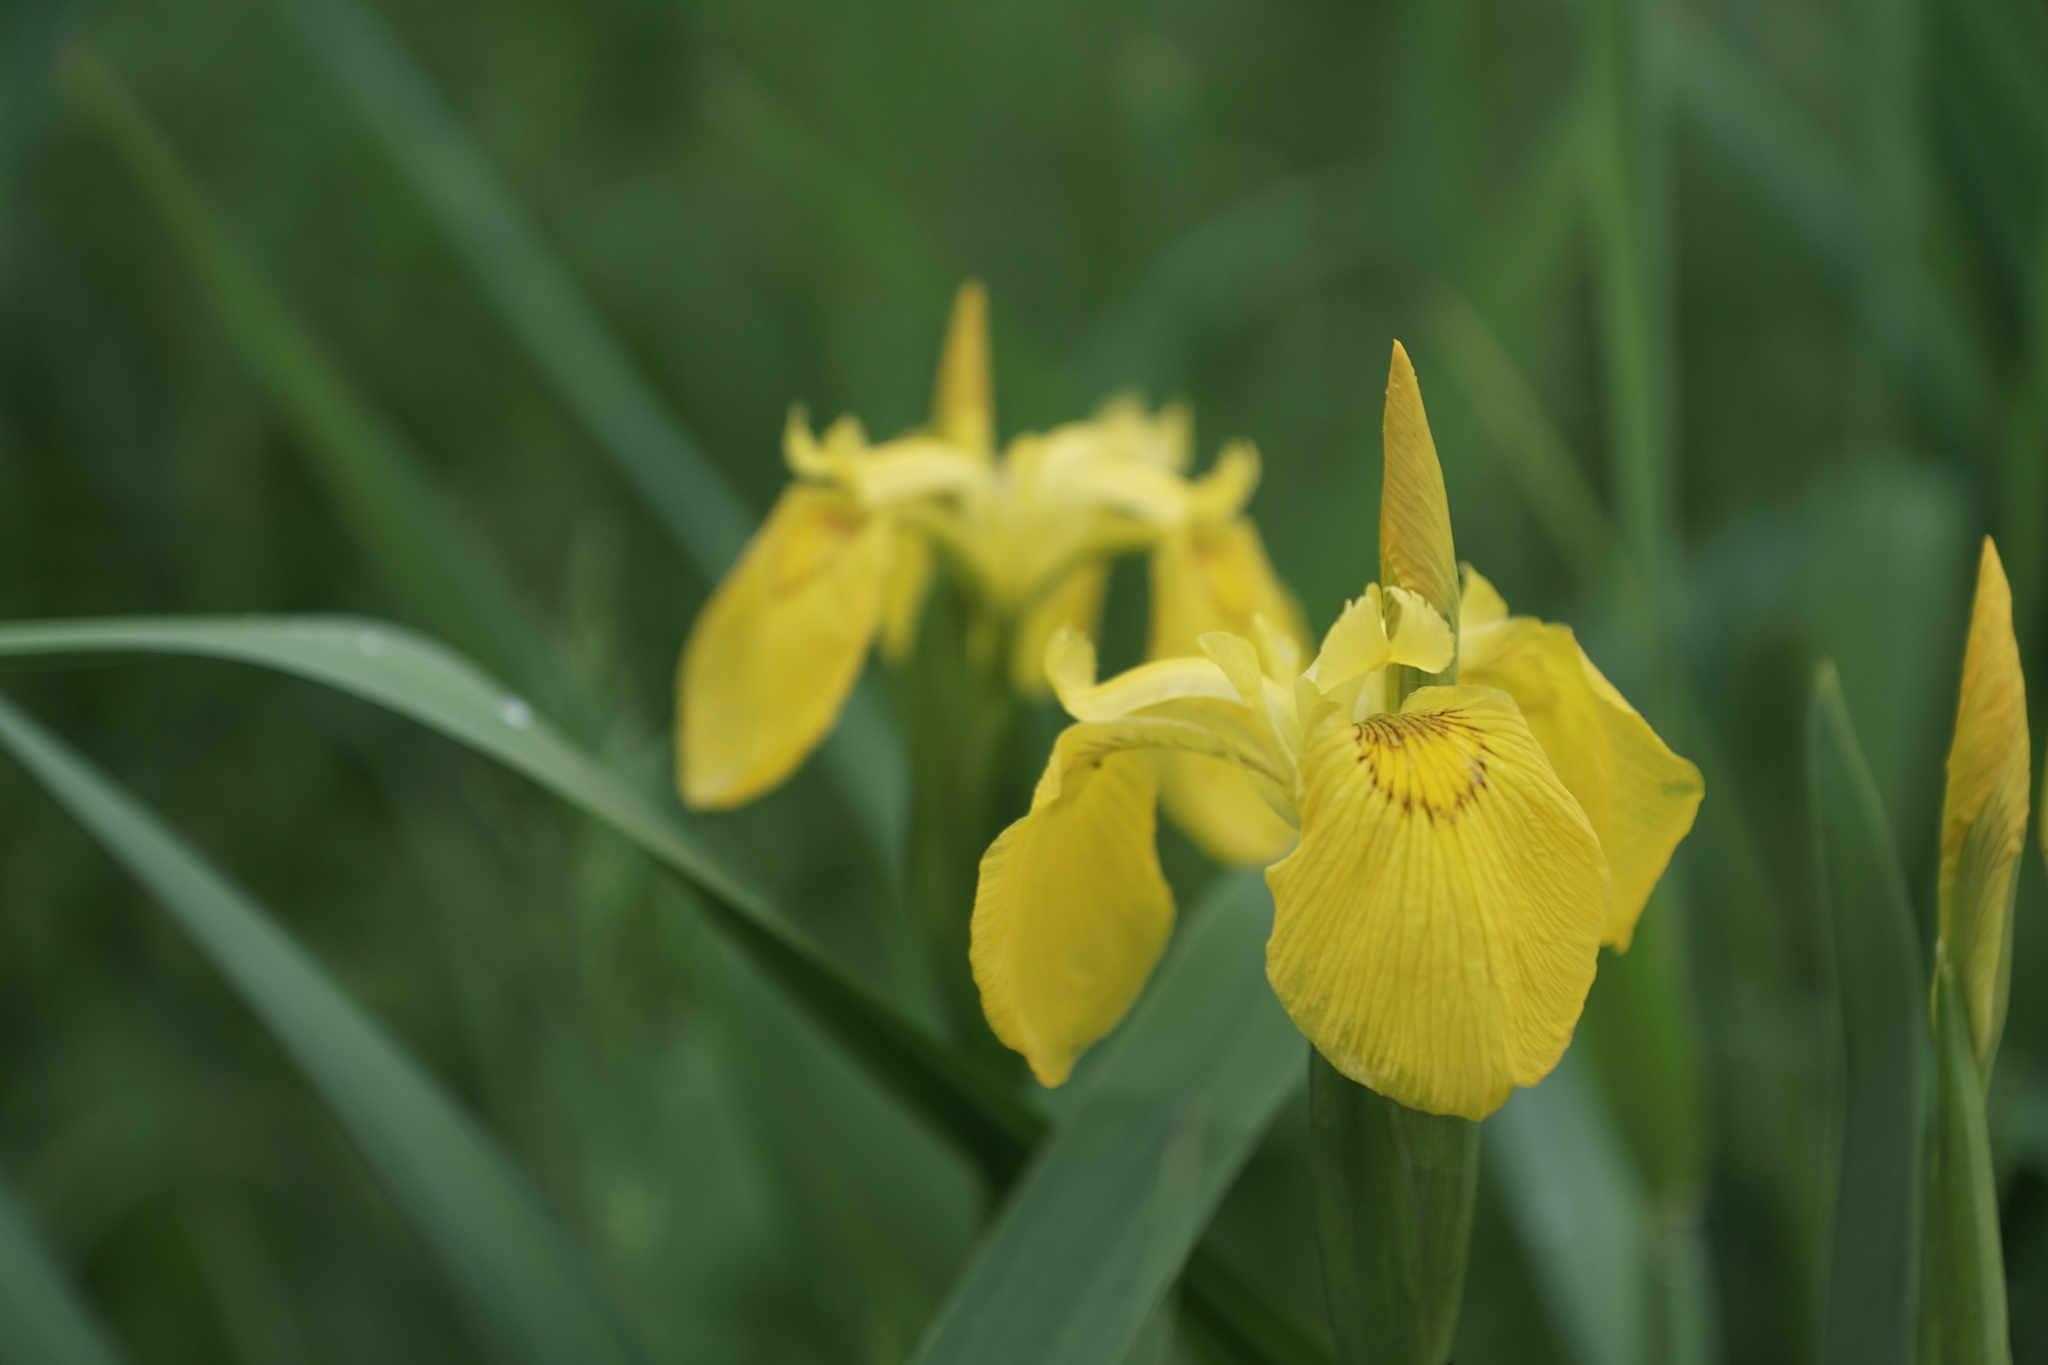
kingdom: Plantae
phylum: Tracheophyta
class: Liliopsida
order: Asparagales
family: Iridaceae
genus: Iris
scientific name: Iris pseudacorus
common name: Yellow flag
